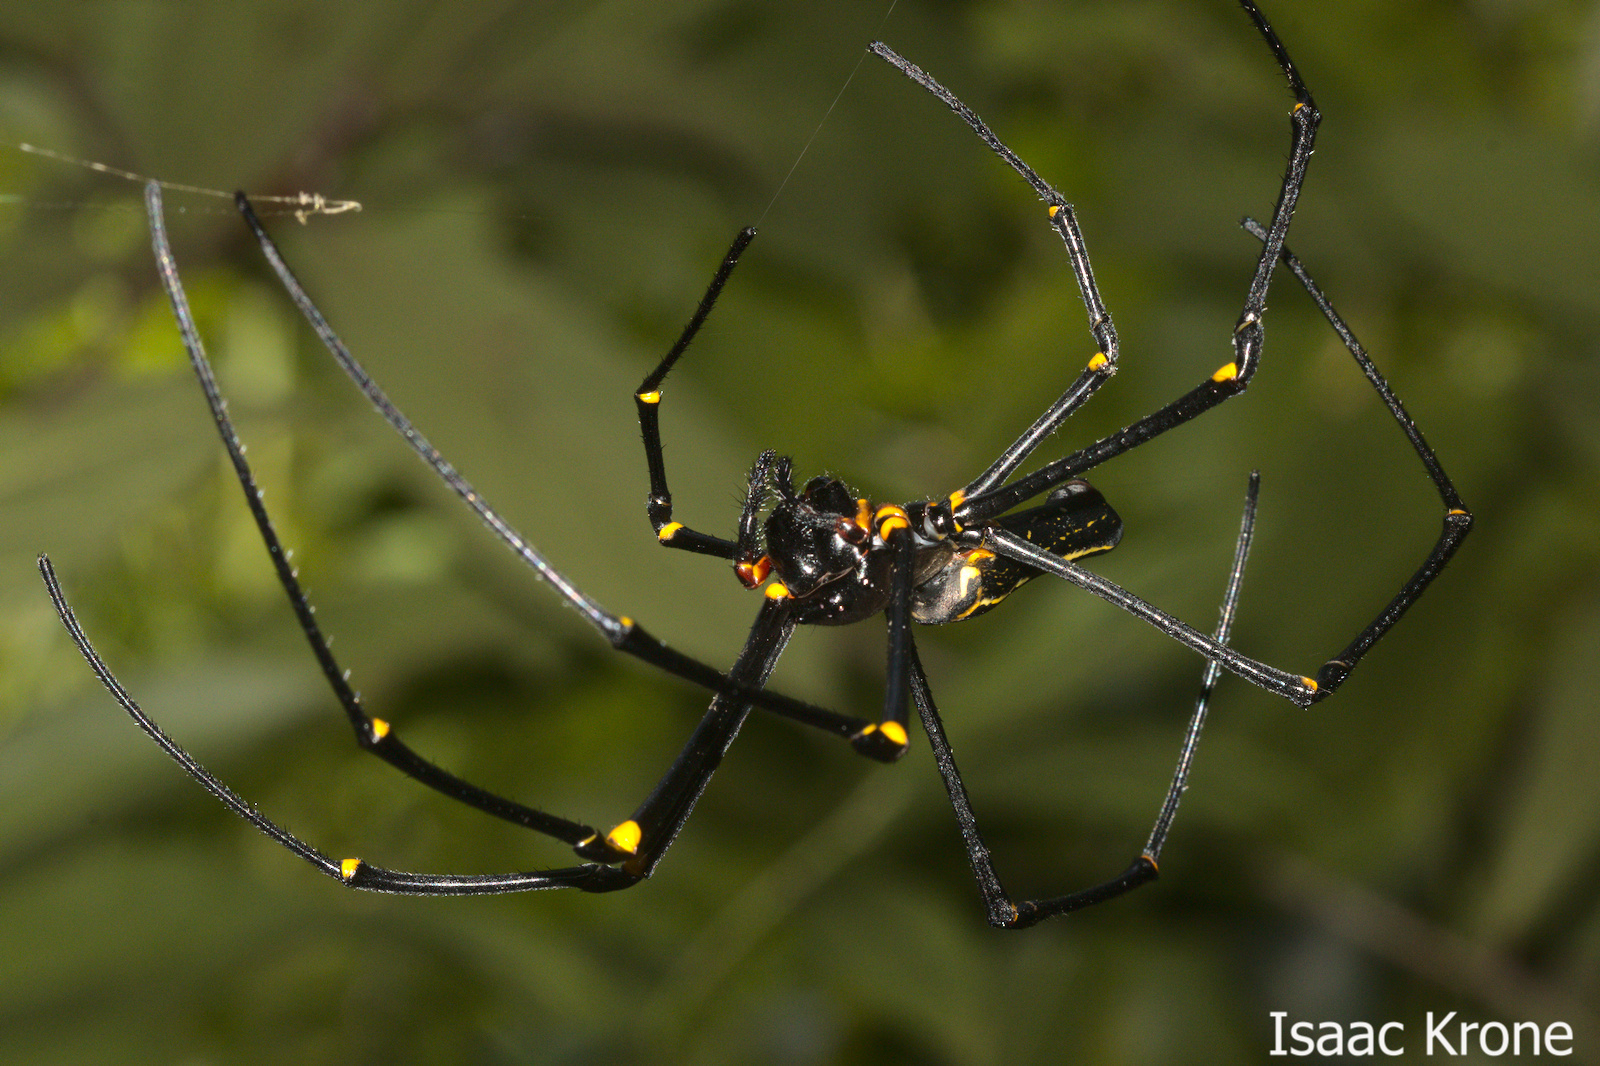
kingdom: Animalia
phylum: Arthropoda
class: Arachnida
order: Araneae
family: Araneidae
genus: Nephila
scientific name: Nephila pilipes
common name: Giant golden orb weaver
